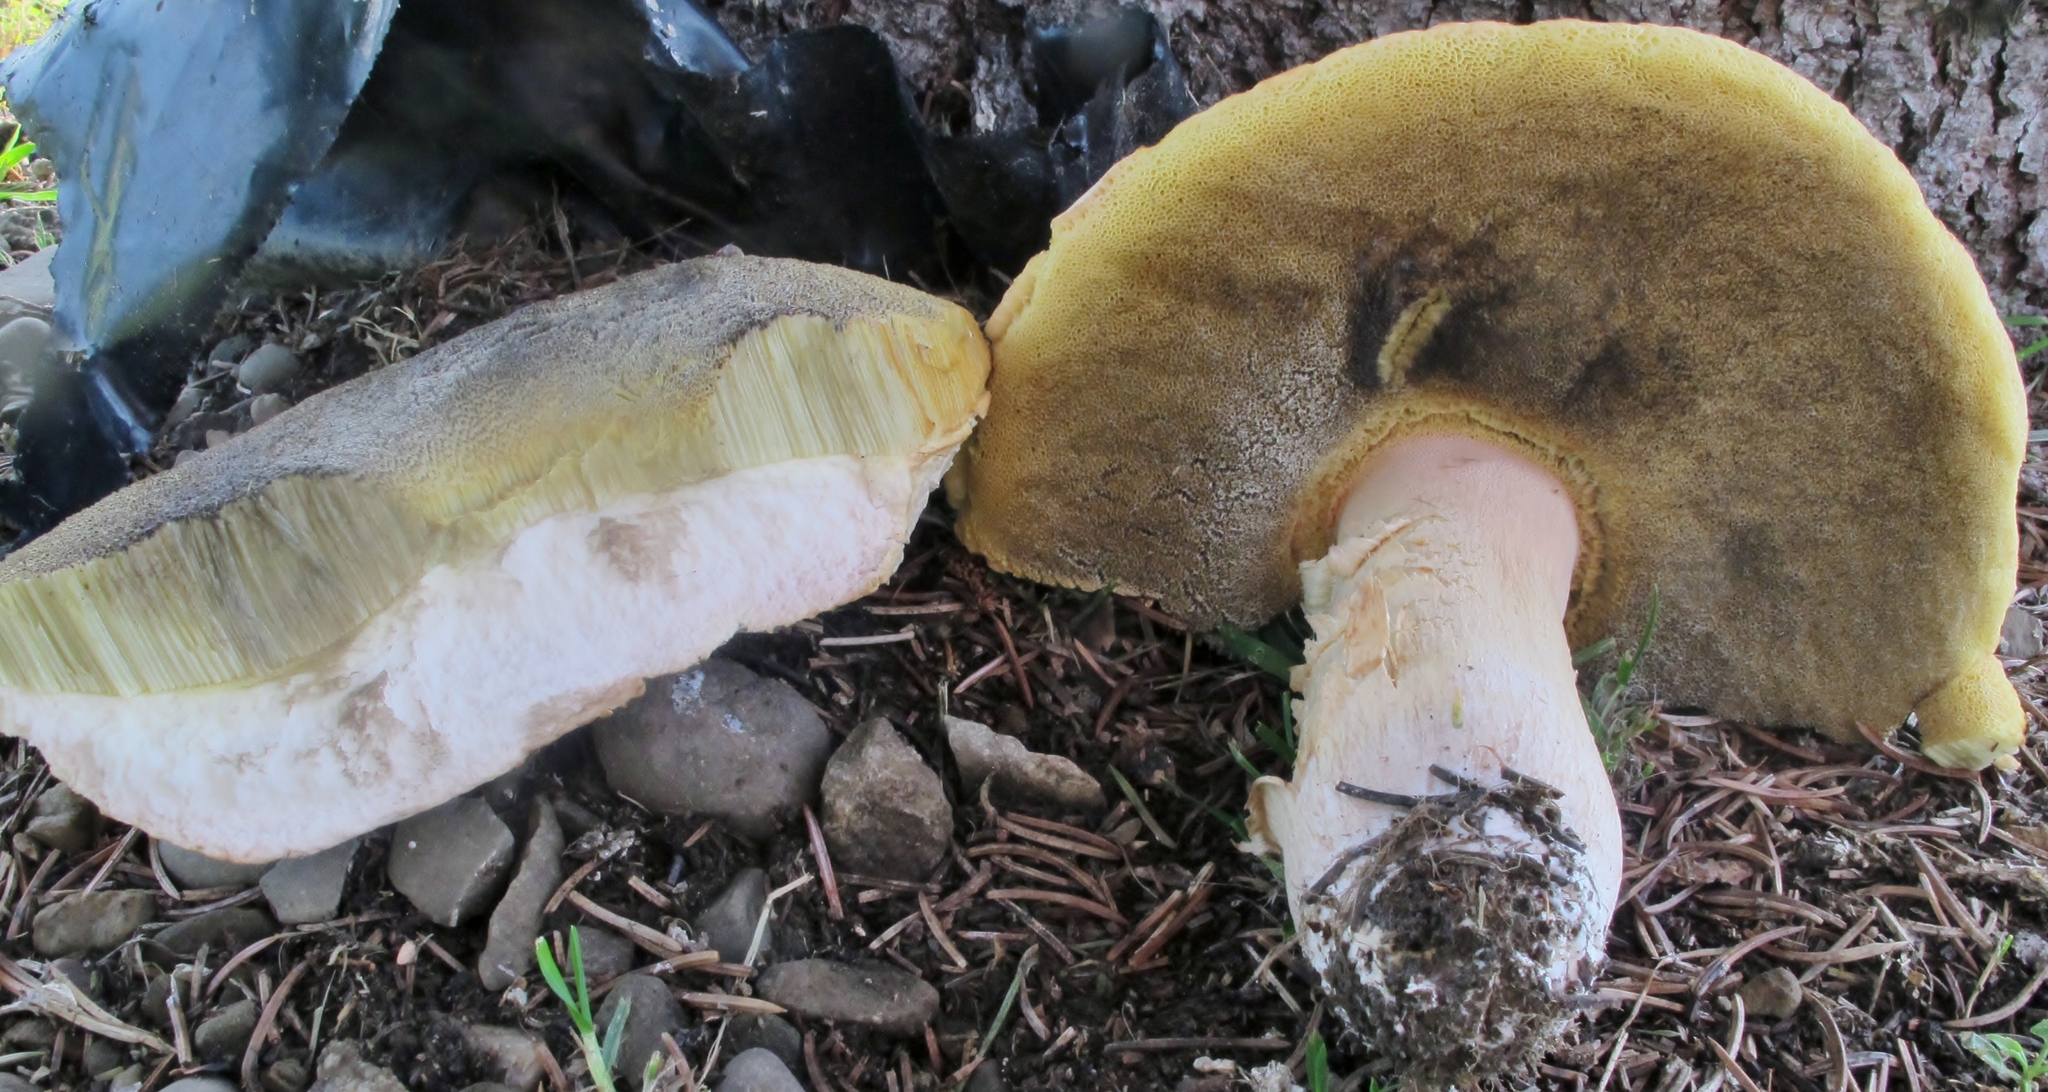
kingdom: Fungi
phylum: Basidiomycota
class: Agaricomycetes
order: Boletales
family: Boletaceae
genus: Boletus
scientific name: Boletus edulis
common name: Cep
